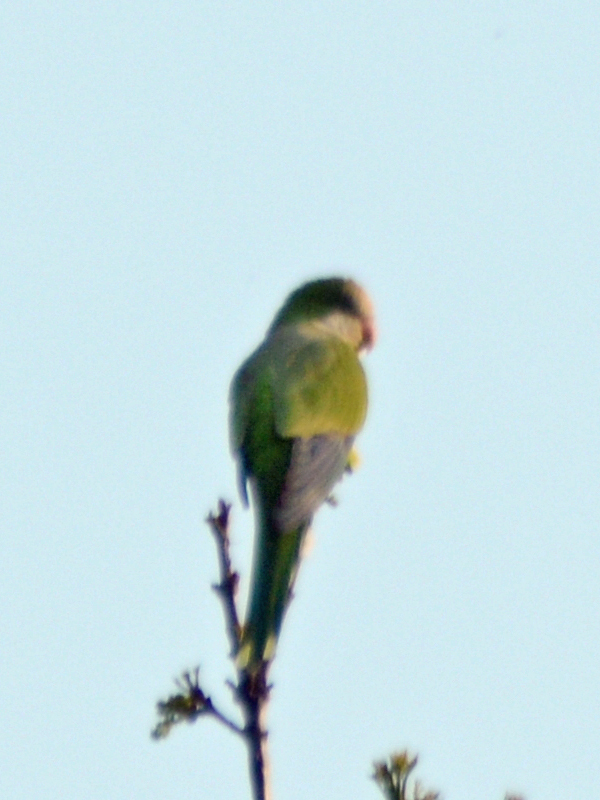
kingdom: Animalia
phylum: Chordata
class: Aves
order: Psittaciformes
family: Psittacidae
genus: Myiopsitta
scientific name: Myiopsitta monachus
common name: Monk parakeet
